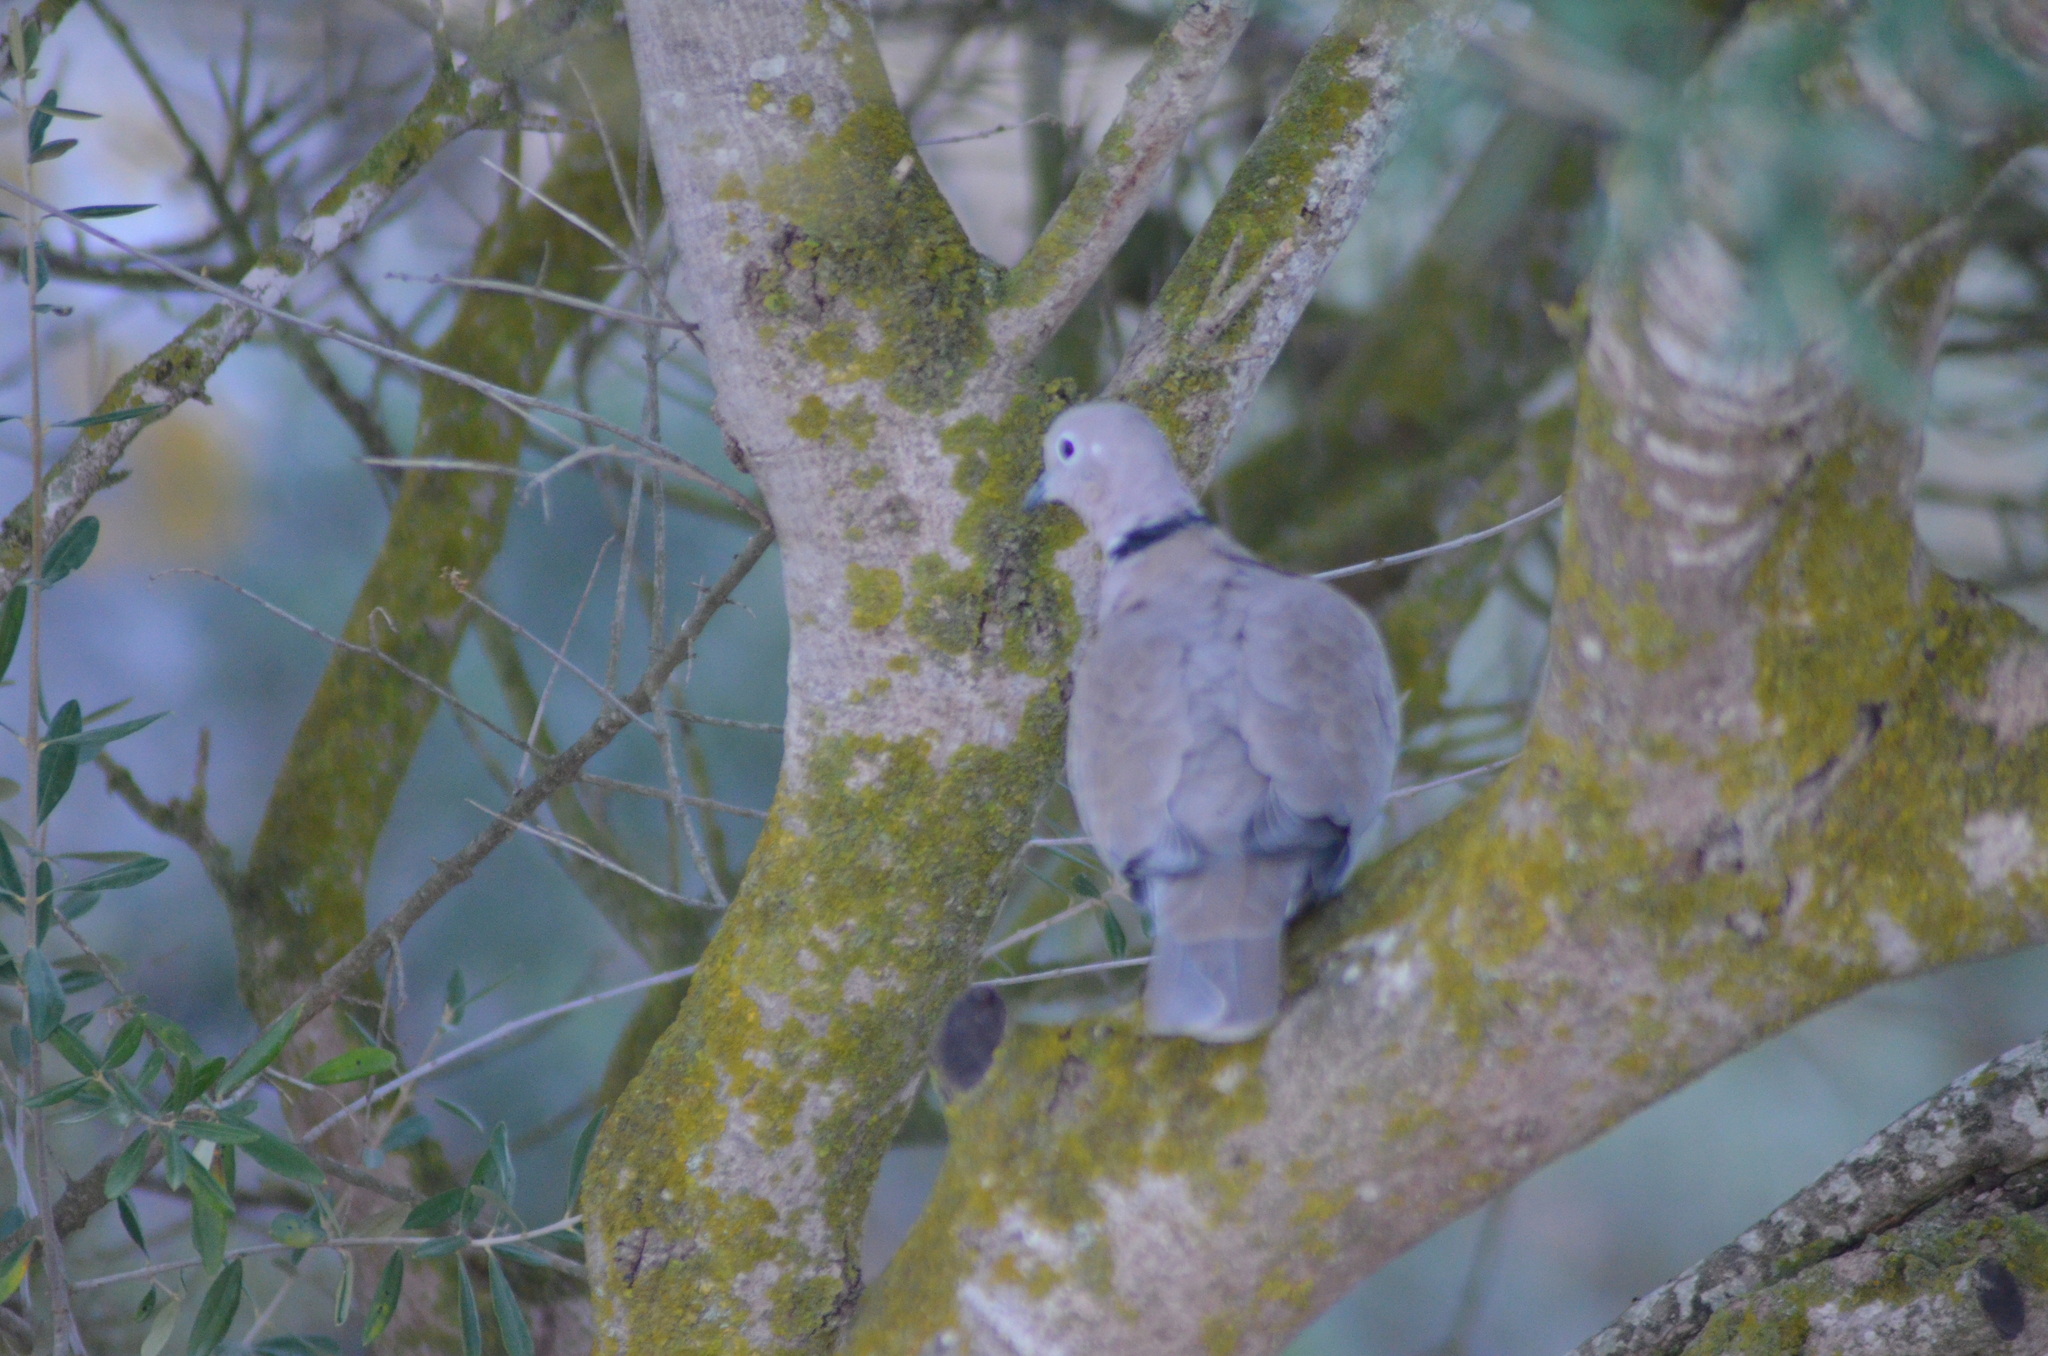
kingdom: Animalia
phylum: Chordata
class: Aves
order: Columbiformes
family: Columbidae
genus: Streptopelia
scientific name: Streptopelia decaocto
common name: Eurasian collared dove
